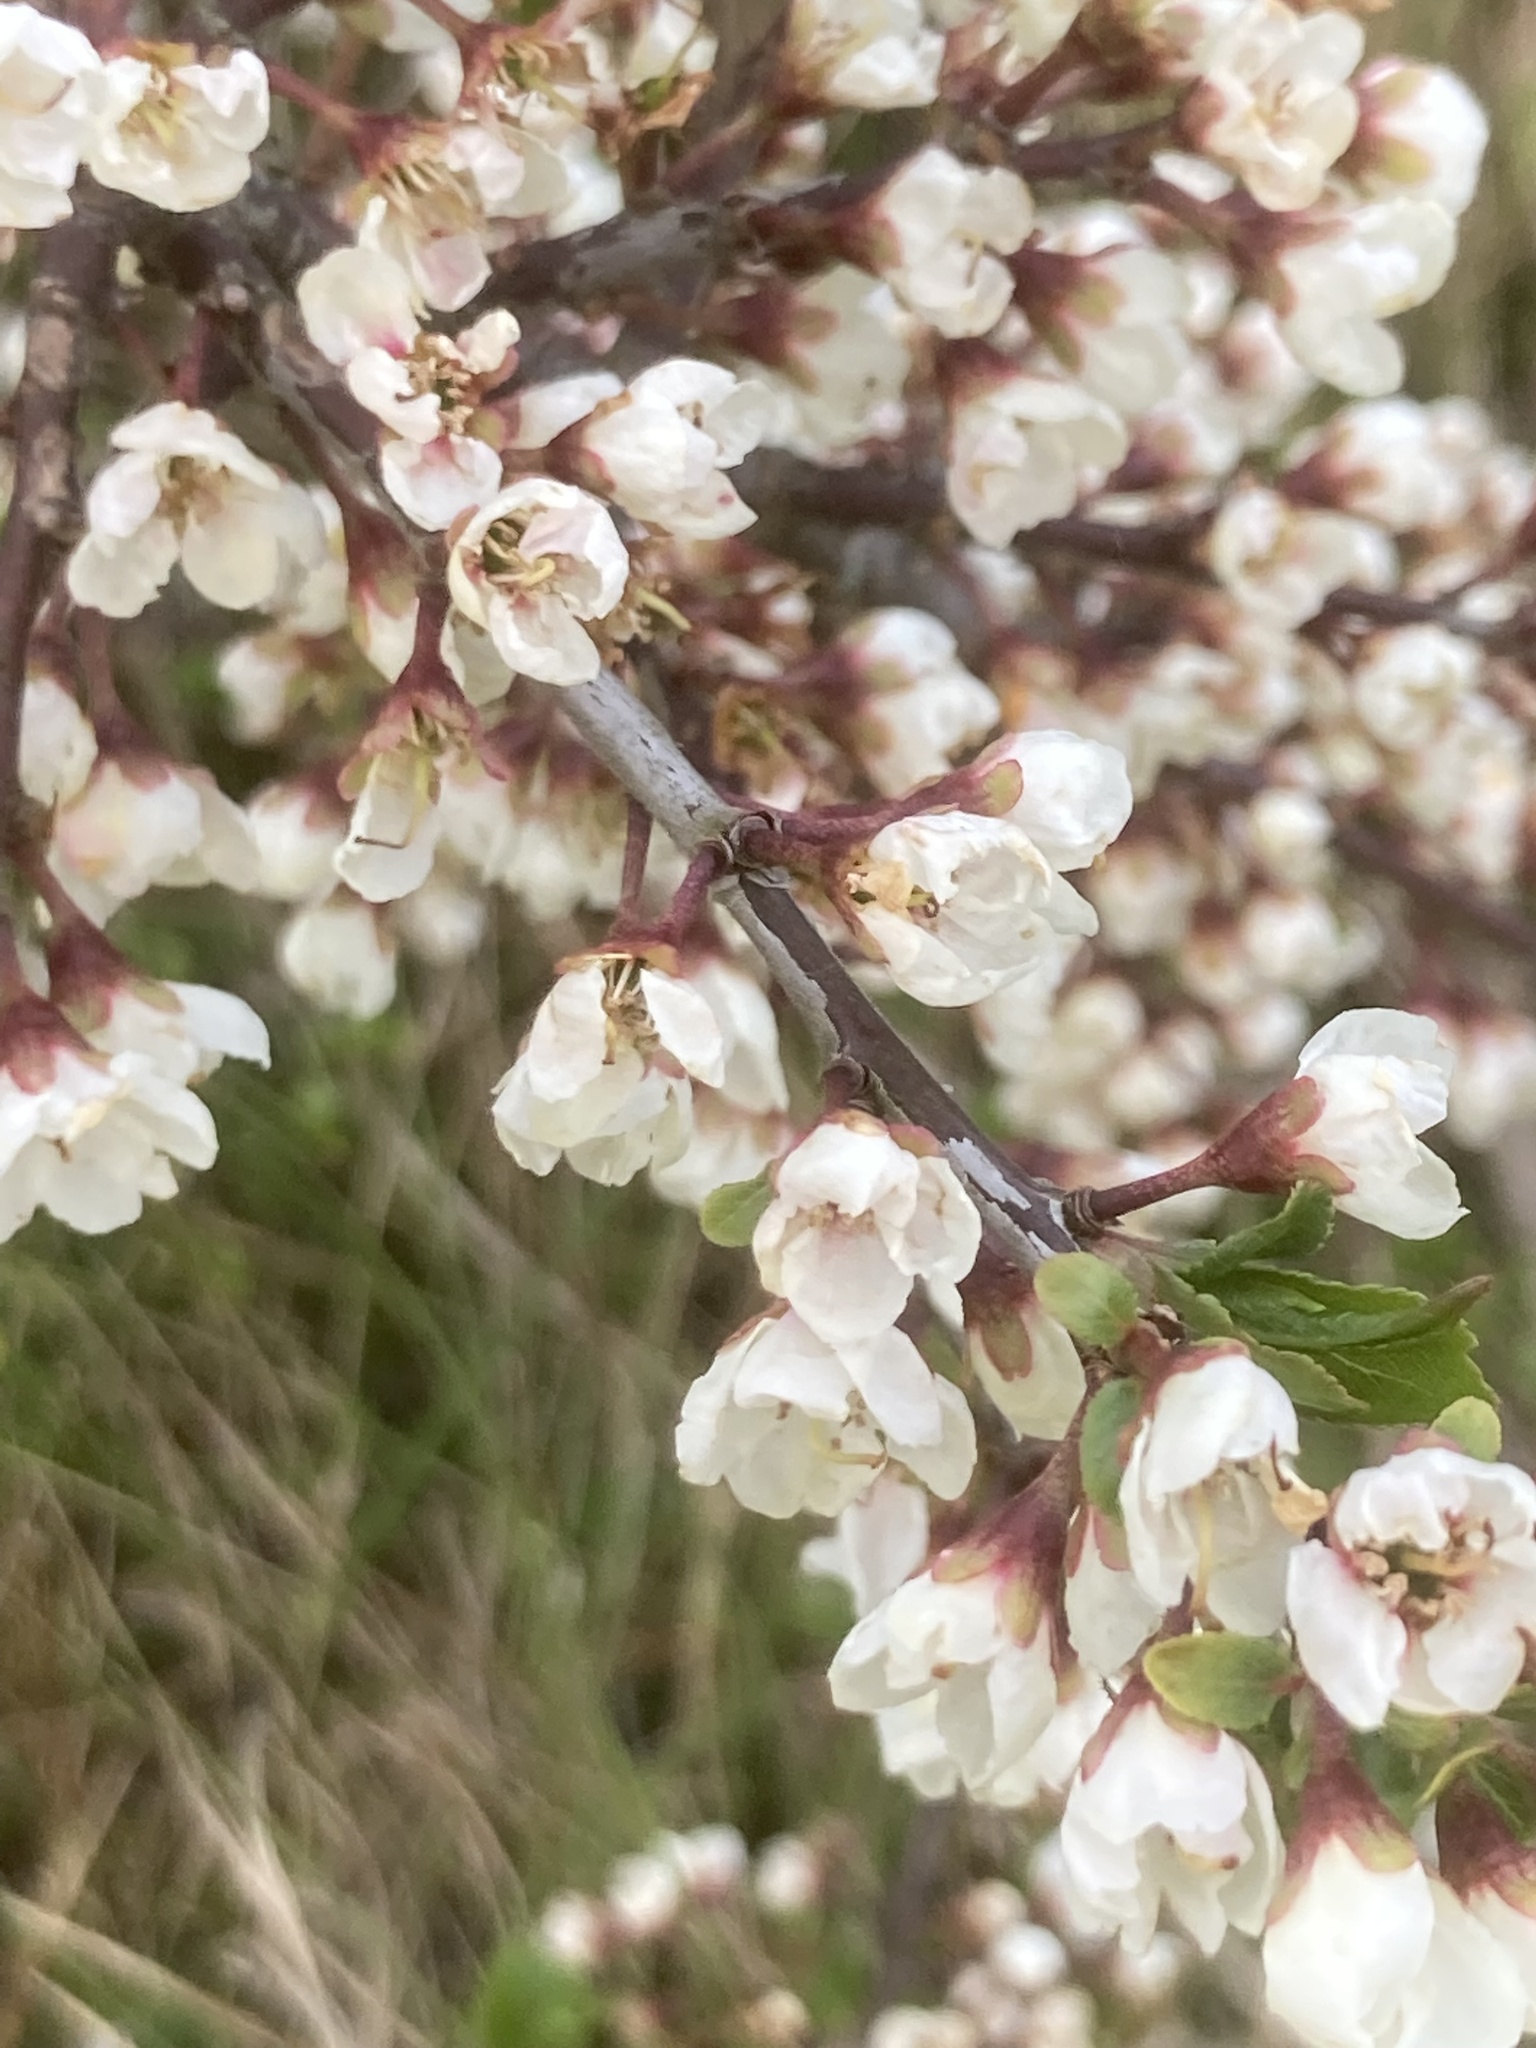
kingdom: Plantae
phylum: Tracheophyta
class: Magnoliopsida
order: Rosales
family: Rosaceae
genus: Prunus
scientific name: Prunus spinosa
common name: Blackthorn
